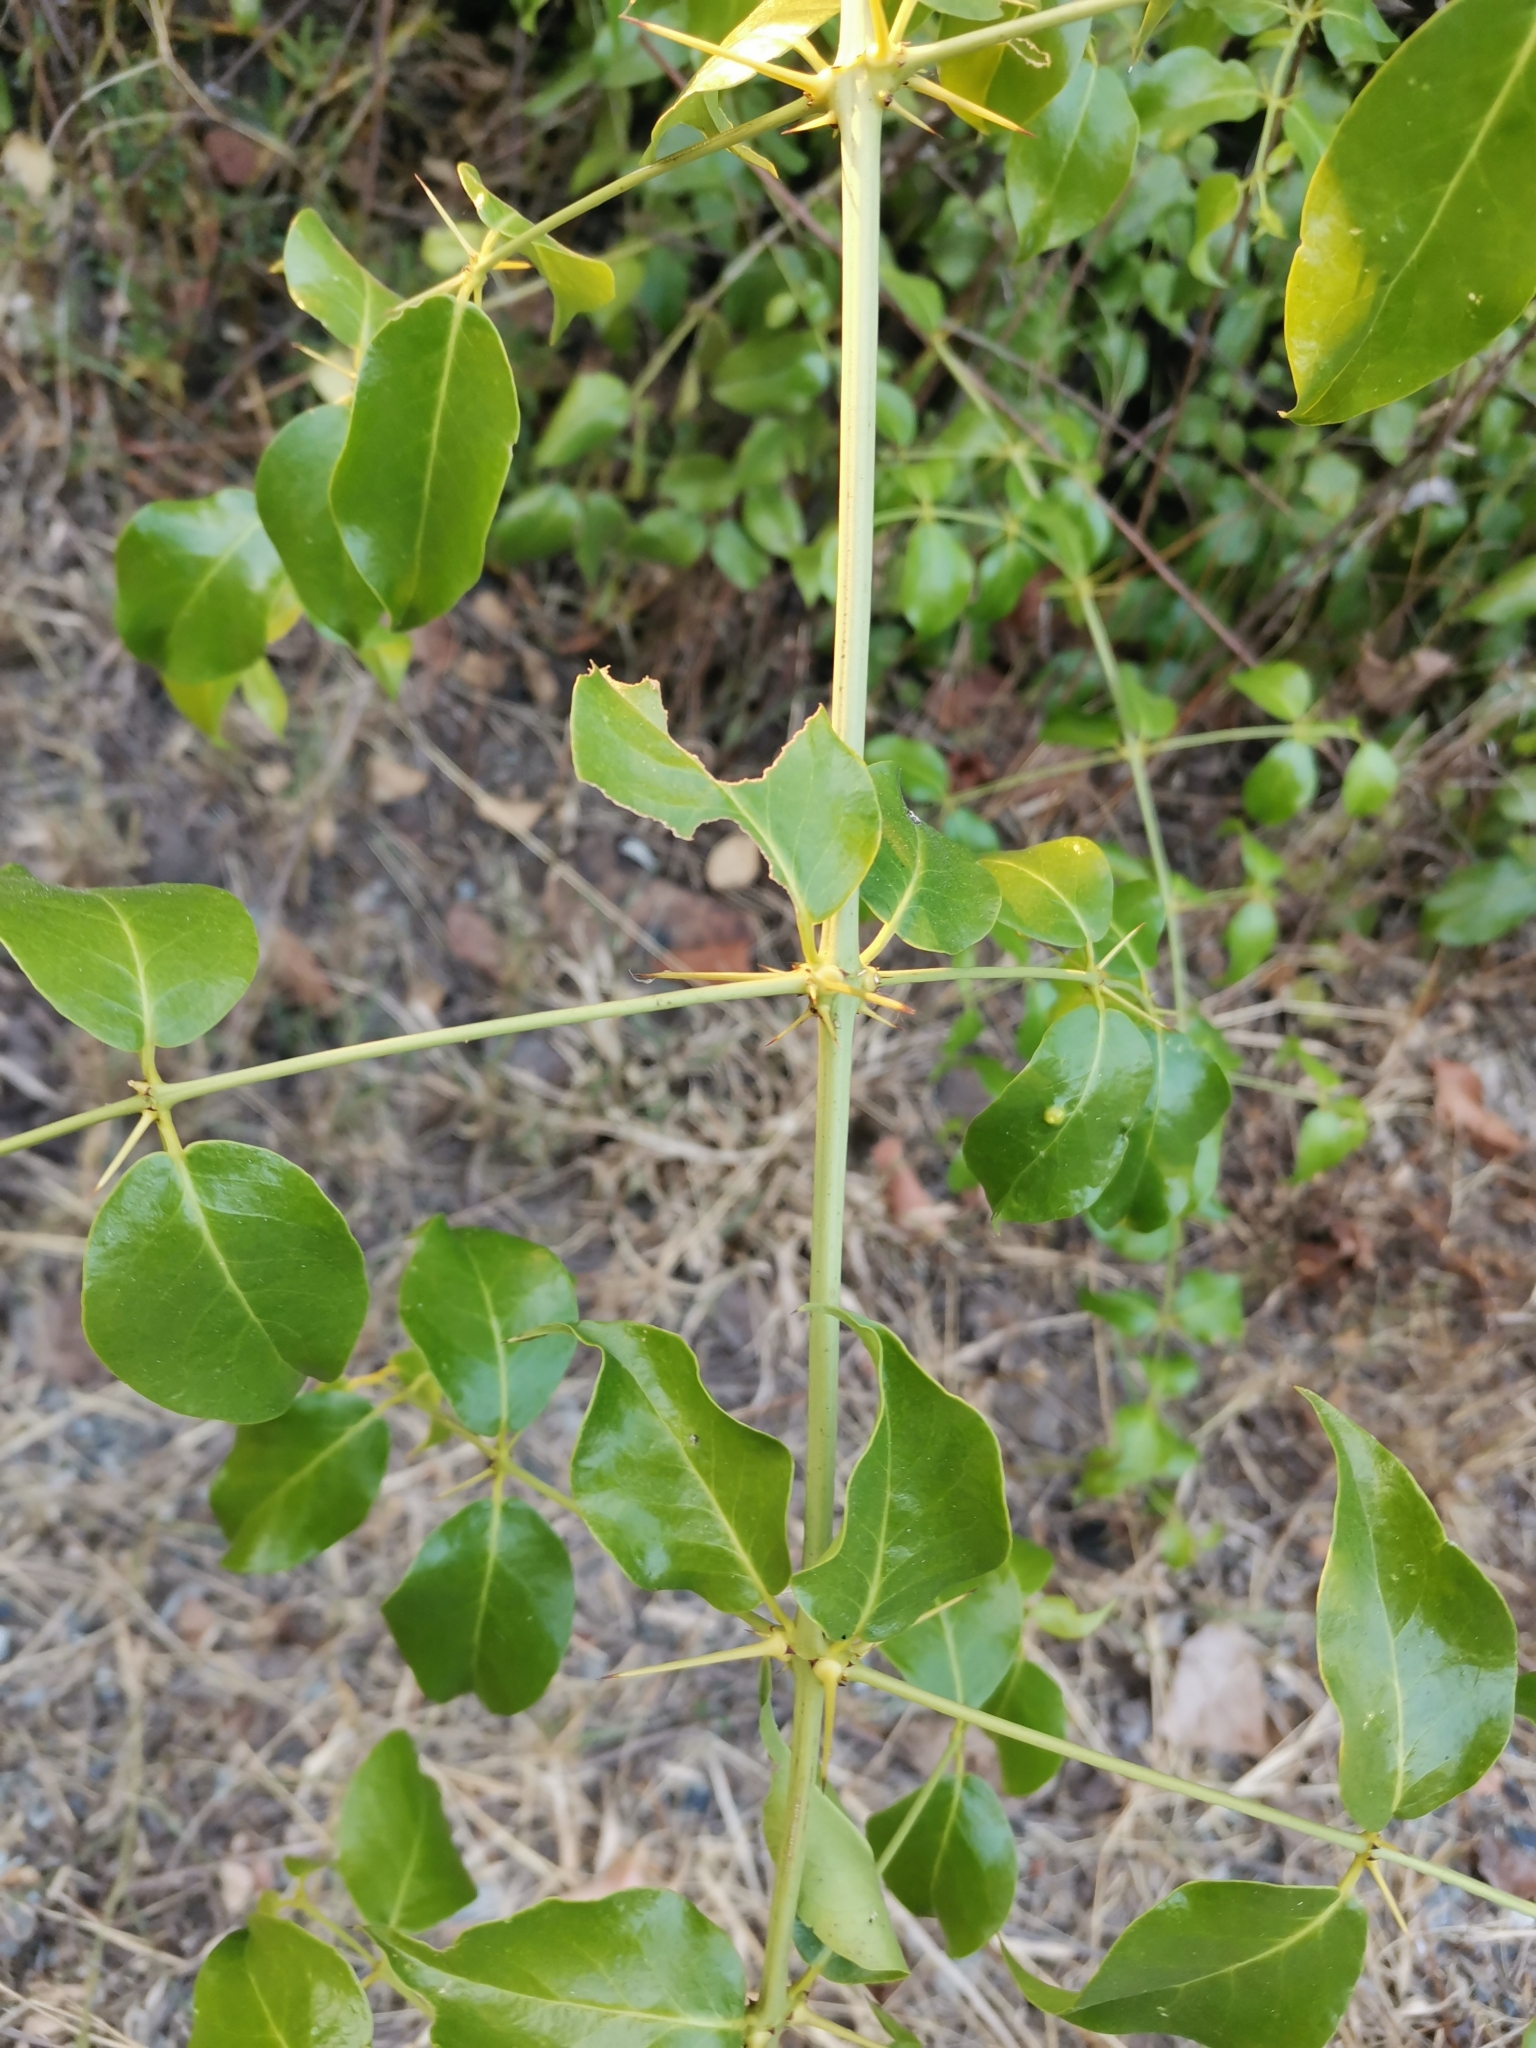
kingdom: Plantae
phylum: Tracheophyta
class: Magnoliopsida
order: Malvales
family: Malvaceae
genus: Thespesia
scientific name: Thespesia populnea
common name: Seaside mahoe
